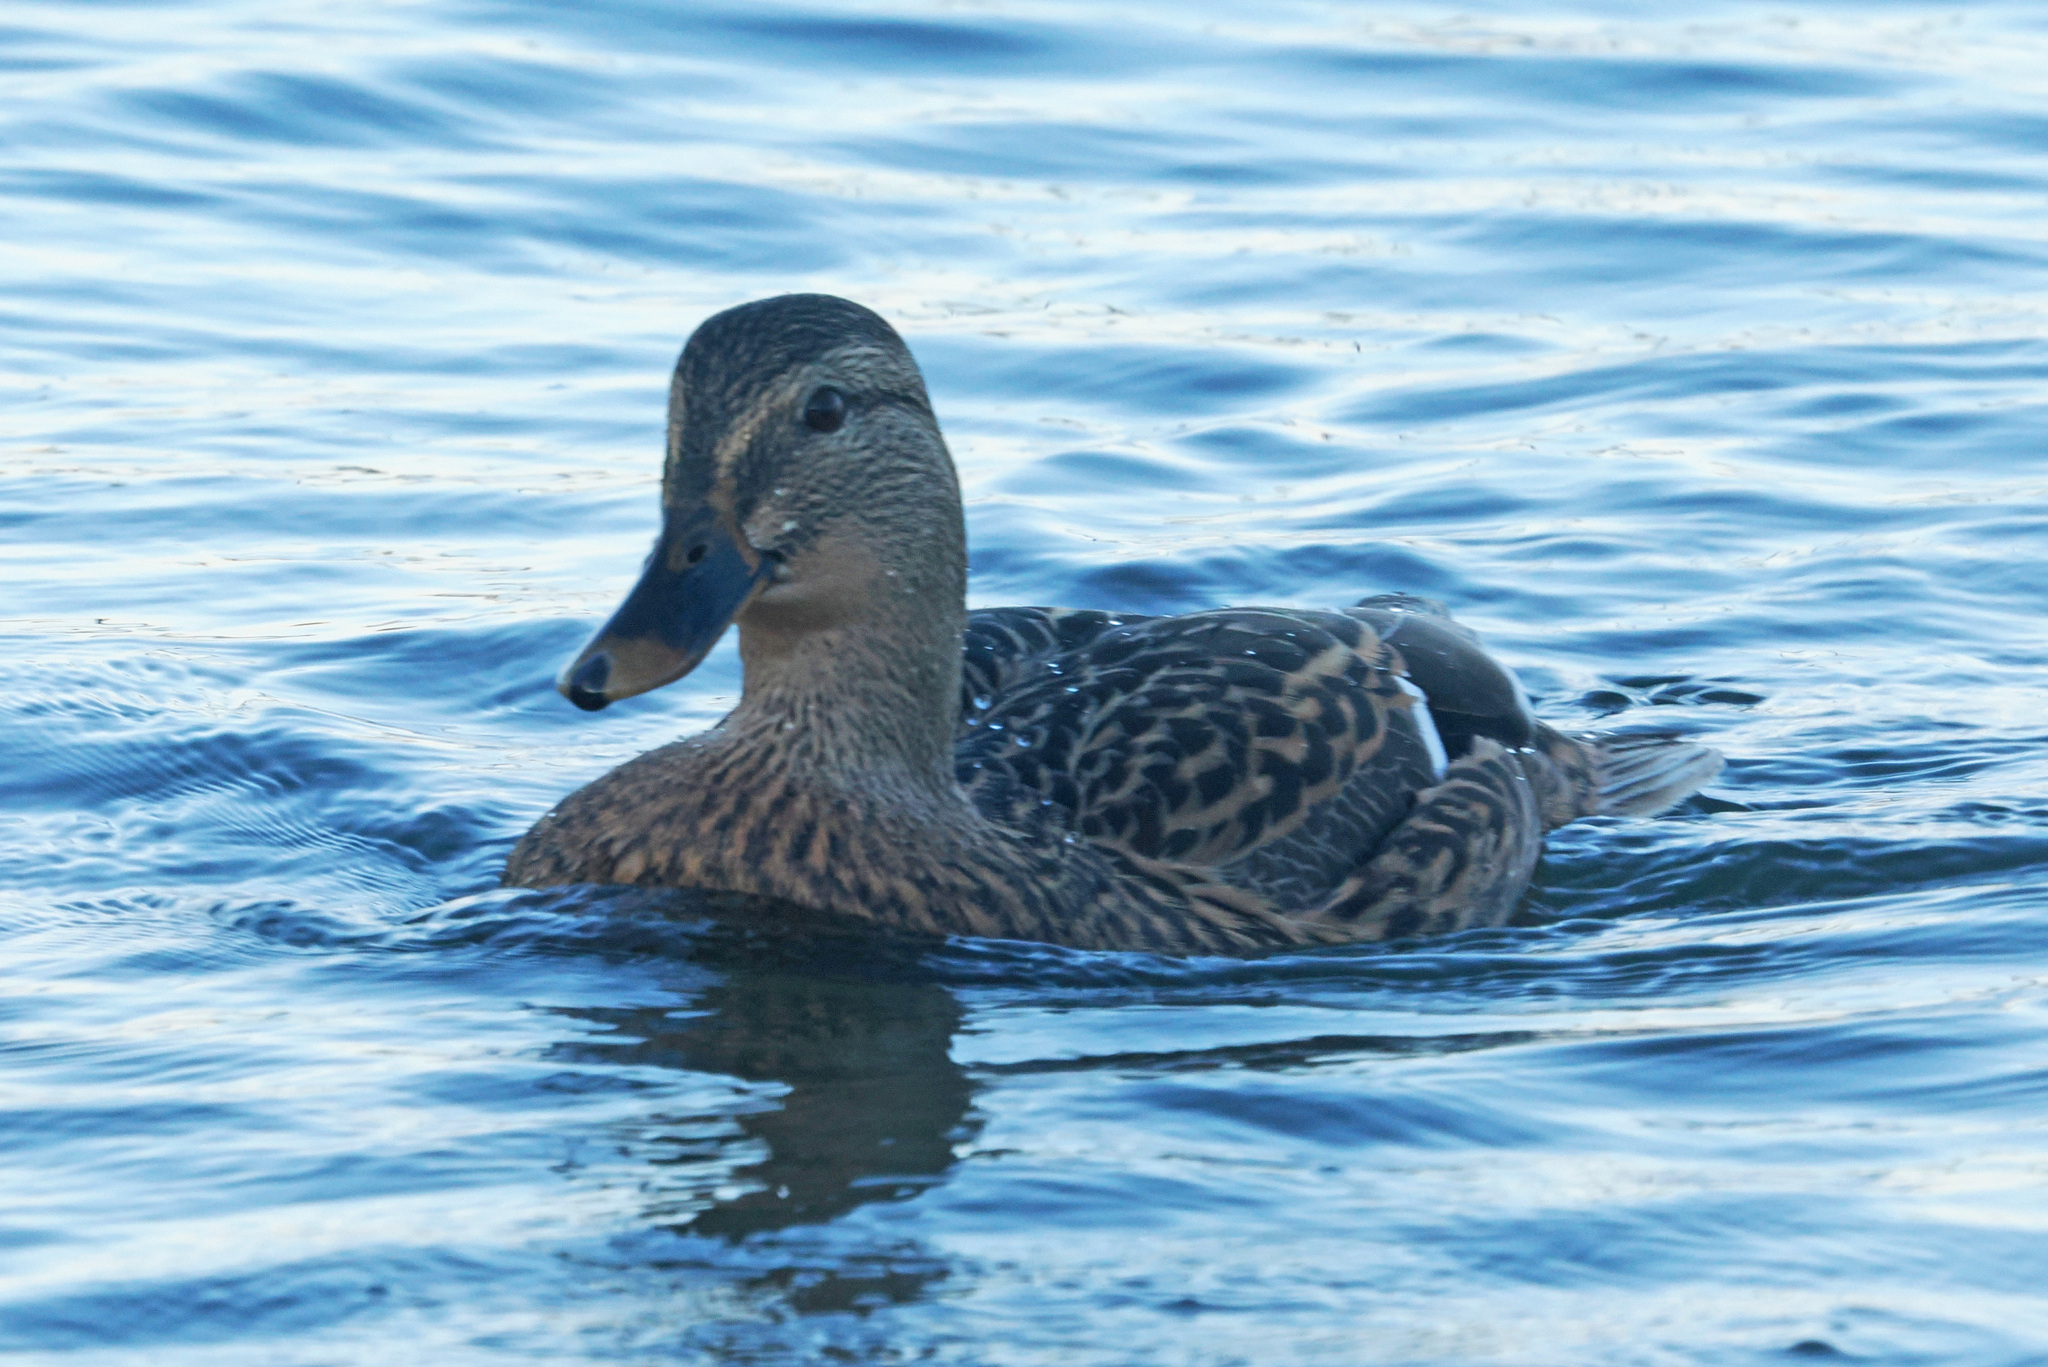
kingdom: Animalia
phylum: Chordata
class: Aves
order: Anseriformes
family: Anatidae
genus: Anas
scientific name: Anas platyrhynchos
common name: Mallard
